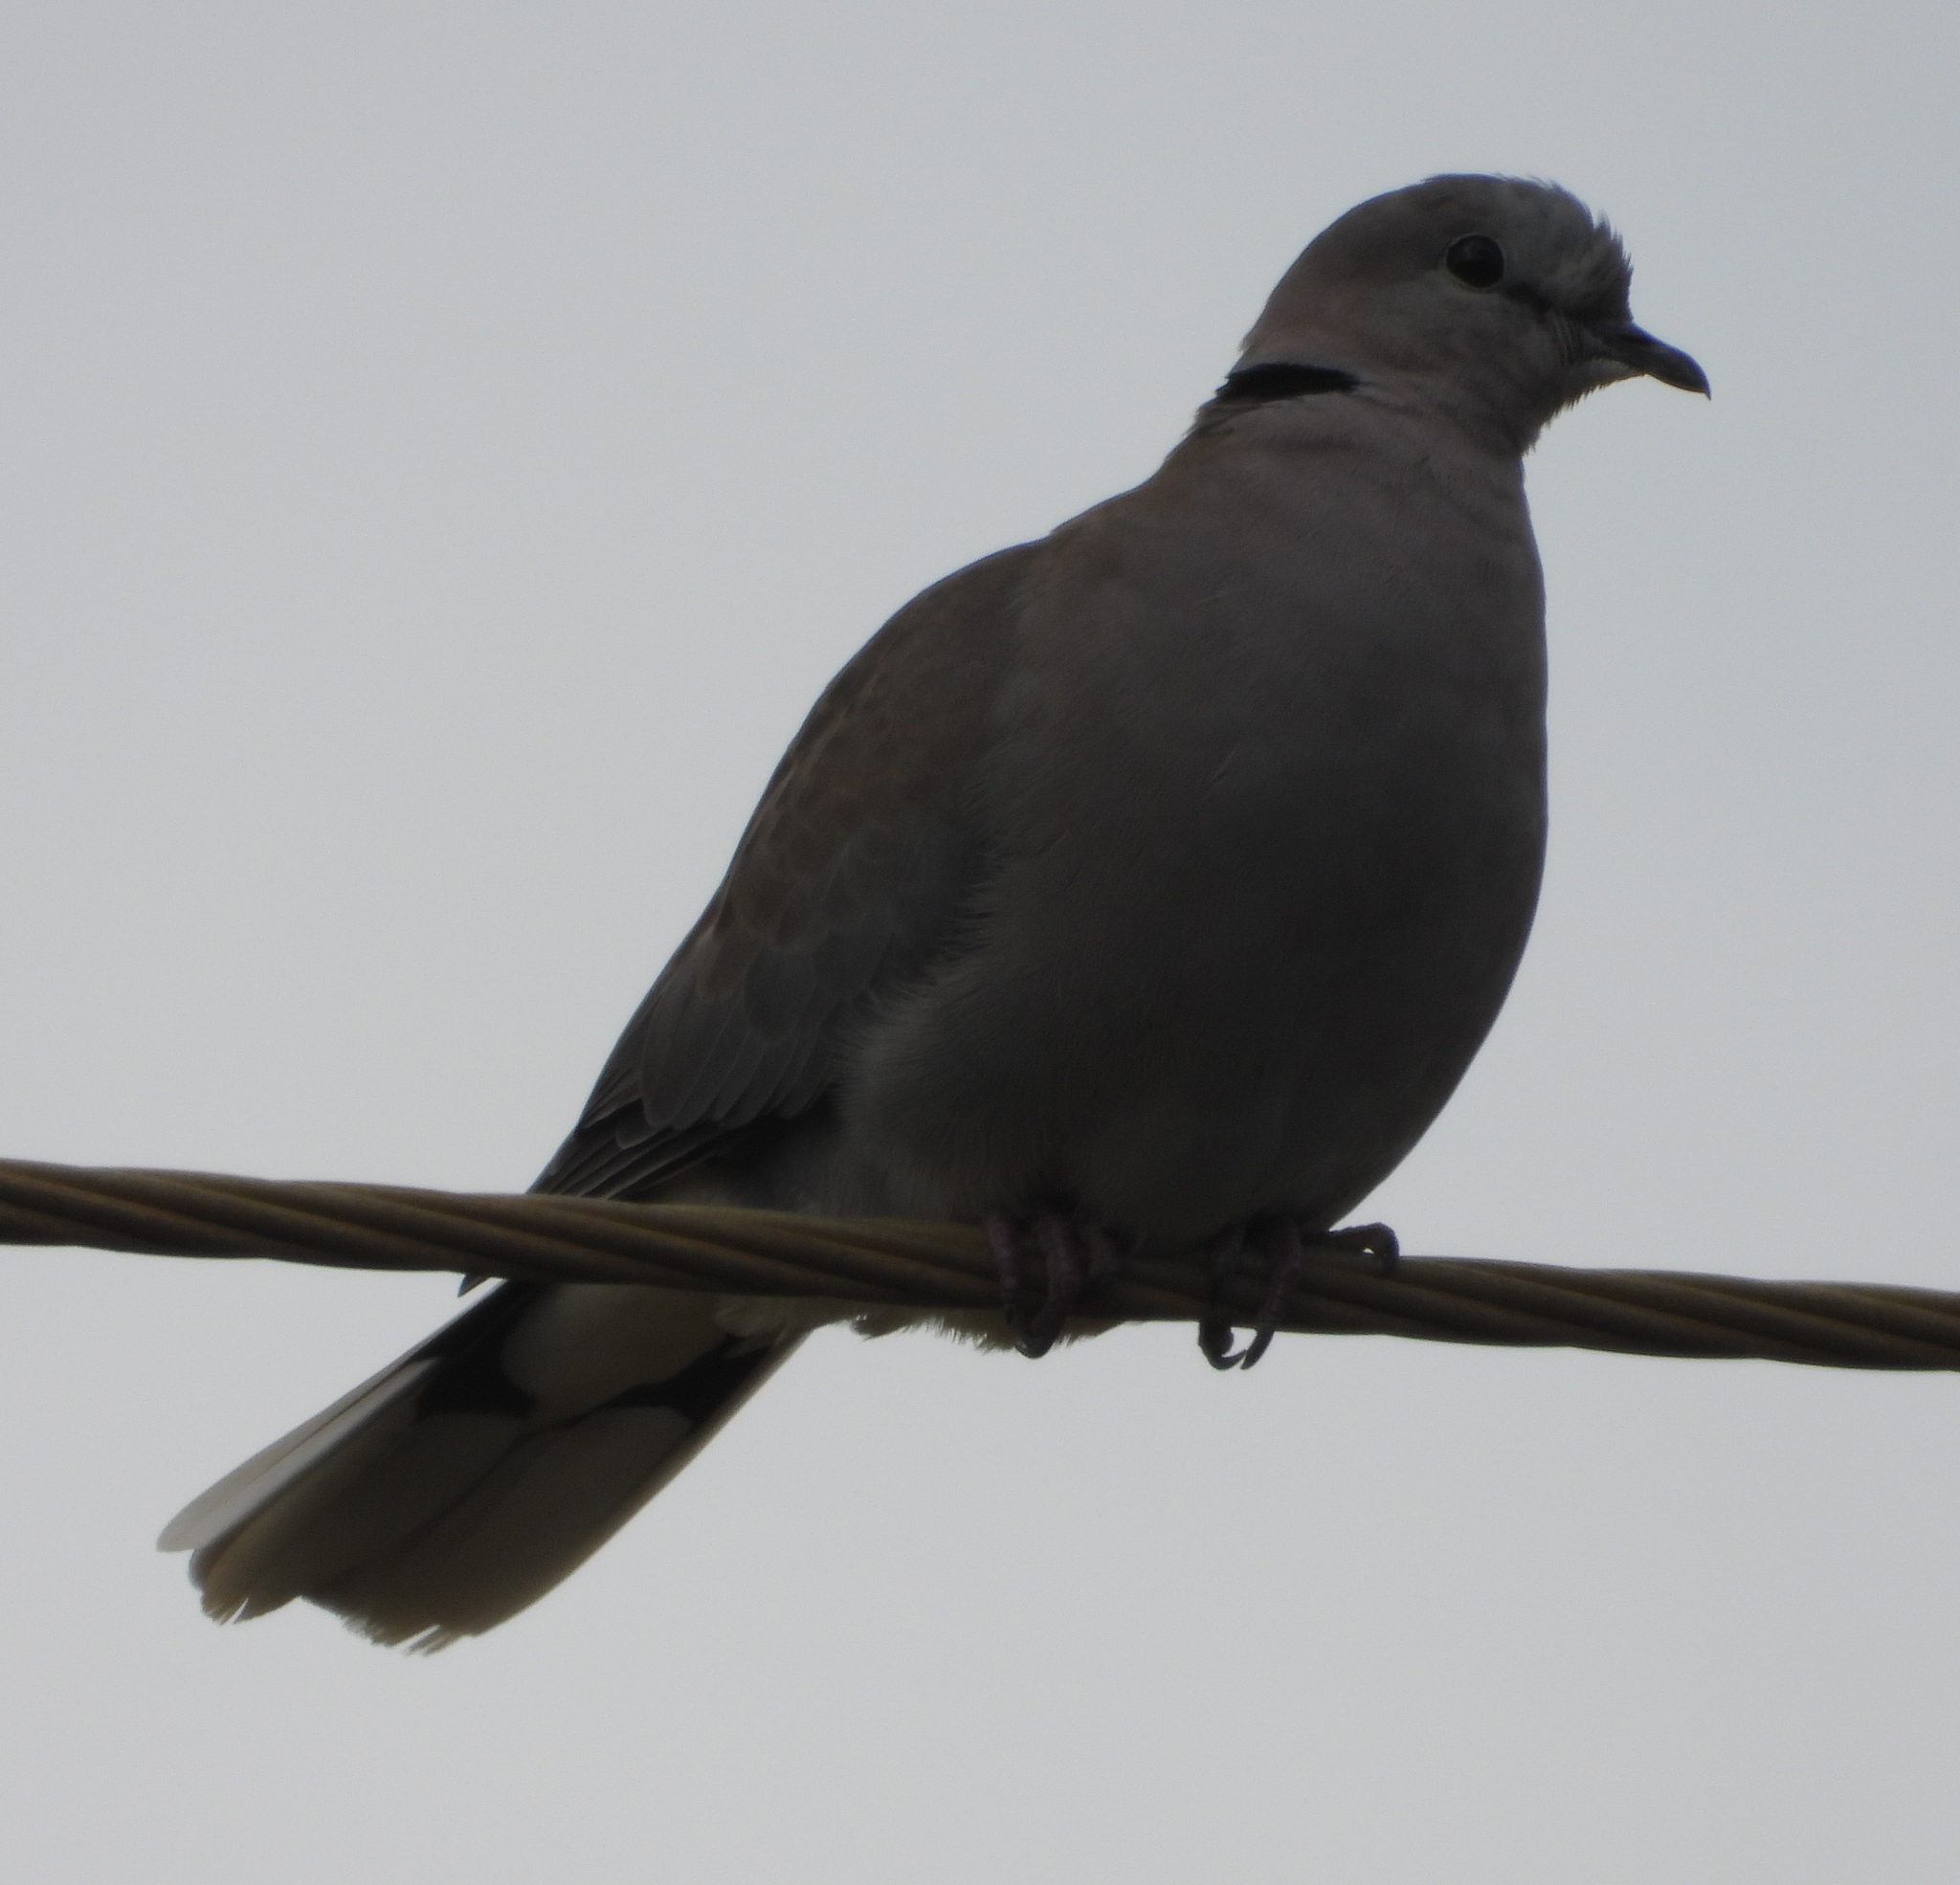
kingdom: Animalia
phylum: Chordata
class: Aves
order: Columbiformes
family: Columbidae
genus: Streptopelia
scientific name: Streptopelia capicola
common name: Ring-necked dove
